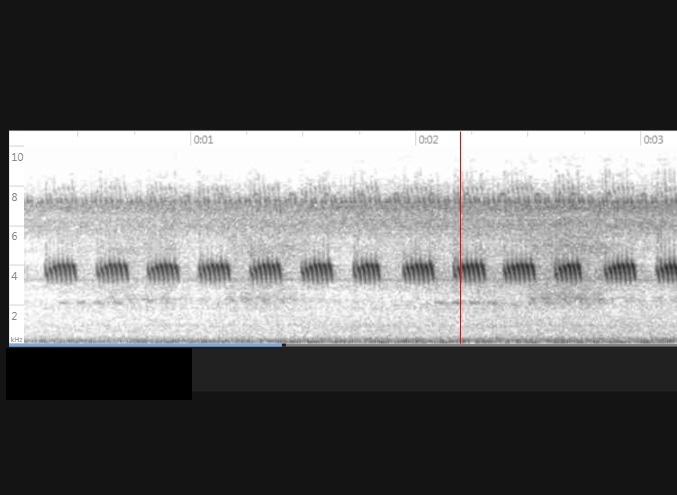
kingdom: Animalia
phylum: Arthropoda
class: Insecta
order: Orthoptera
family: Gryllidae
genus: Velarifictorus
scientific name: Velarifictorus micado
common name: Japanese burrowing cricket
